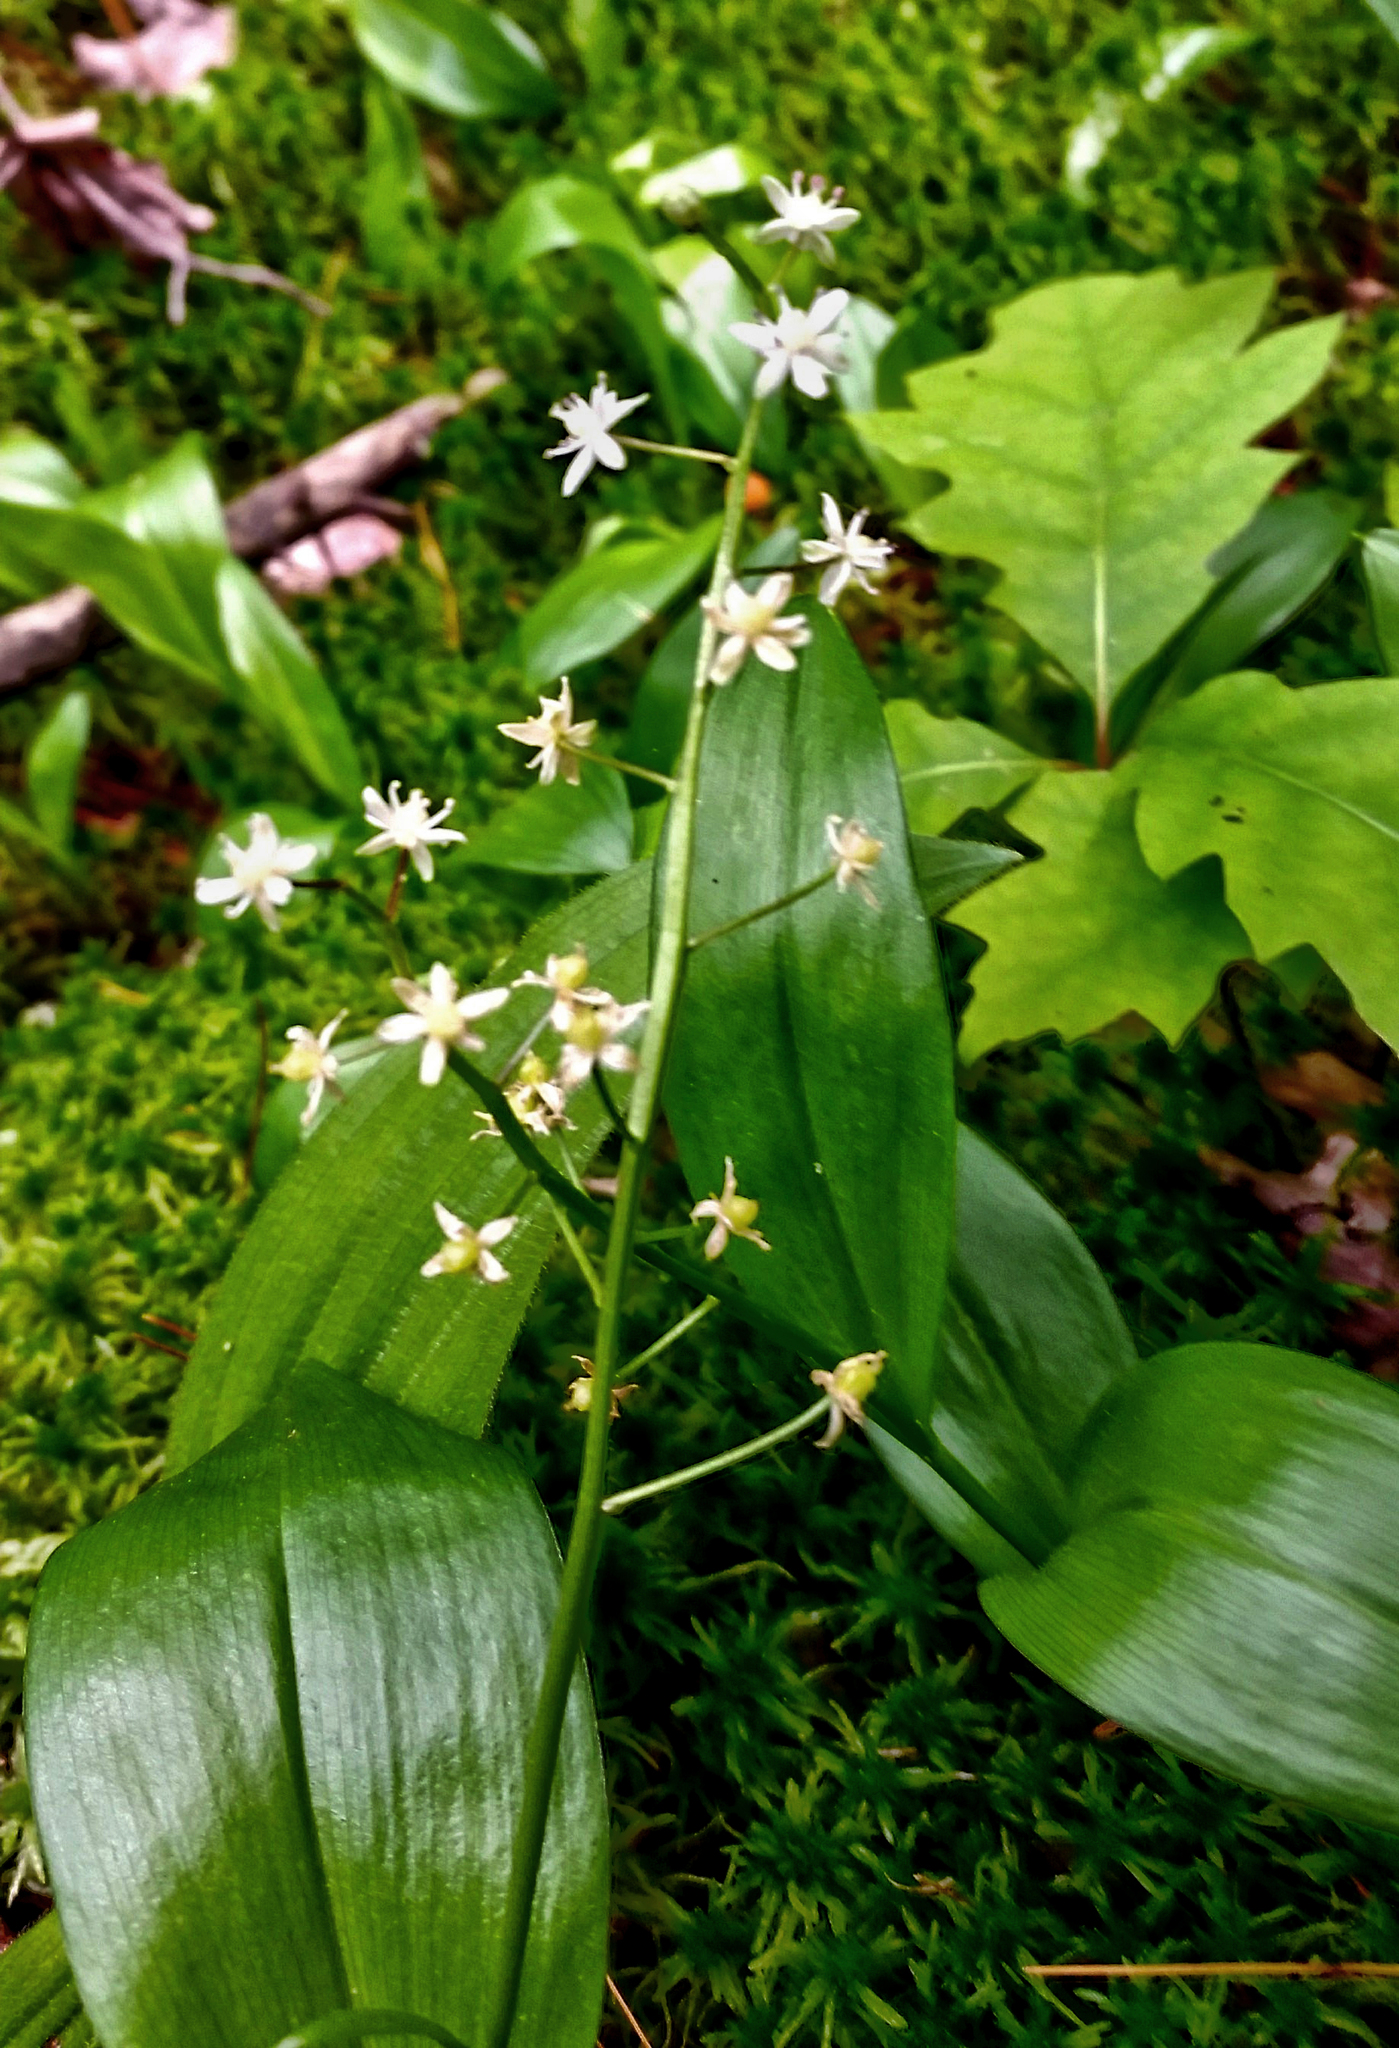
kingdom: Plantae
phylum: Tracheophyta
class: Liliopsida
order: Asparagales
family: Asparagaceae
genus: Maianthemum
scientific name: Maianthemum trifolium
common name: Swamp false solomon's seal
